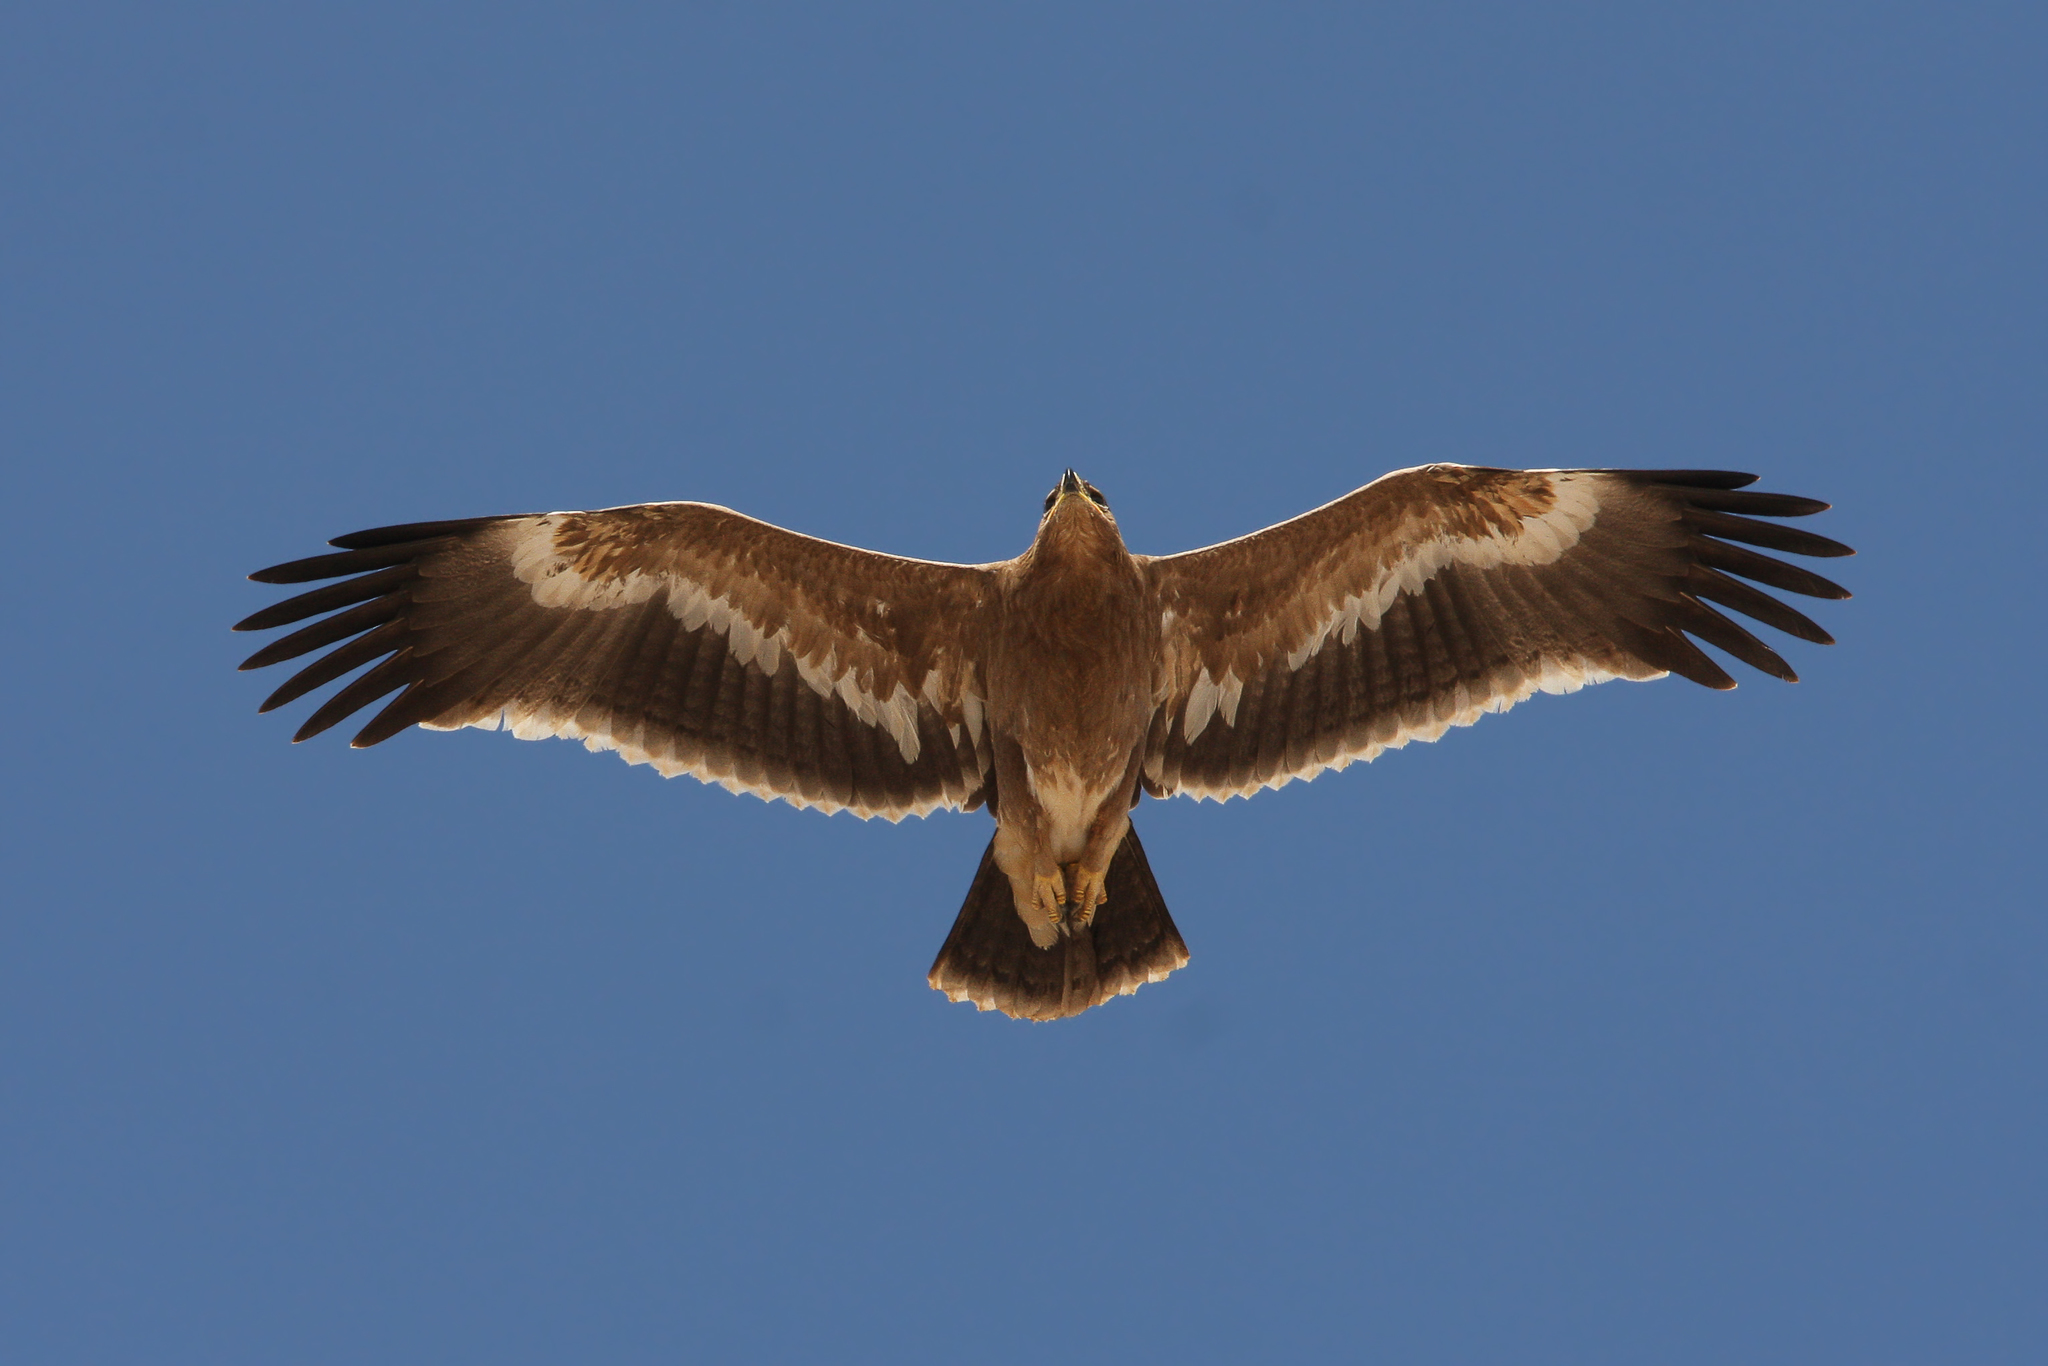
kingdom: Animalia
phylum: Chordata
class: Aves
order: Accipitriformes
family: Accipitridae
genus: Aquila
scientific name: Aquila nipalensis
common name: Steppe eagle
